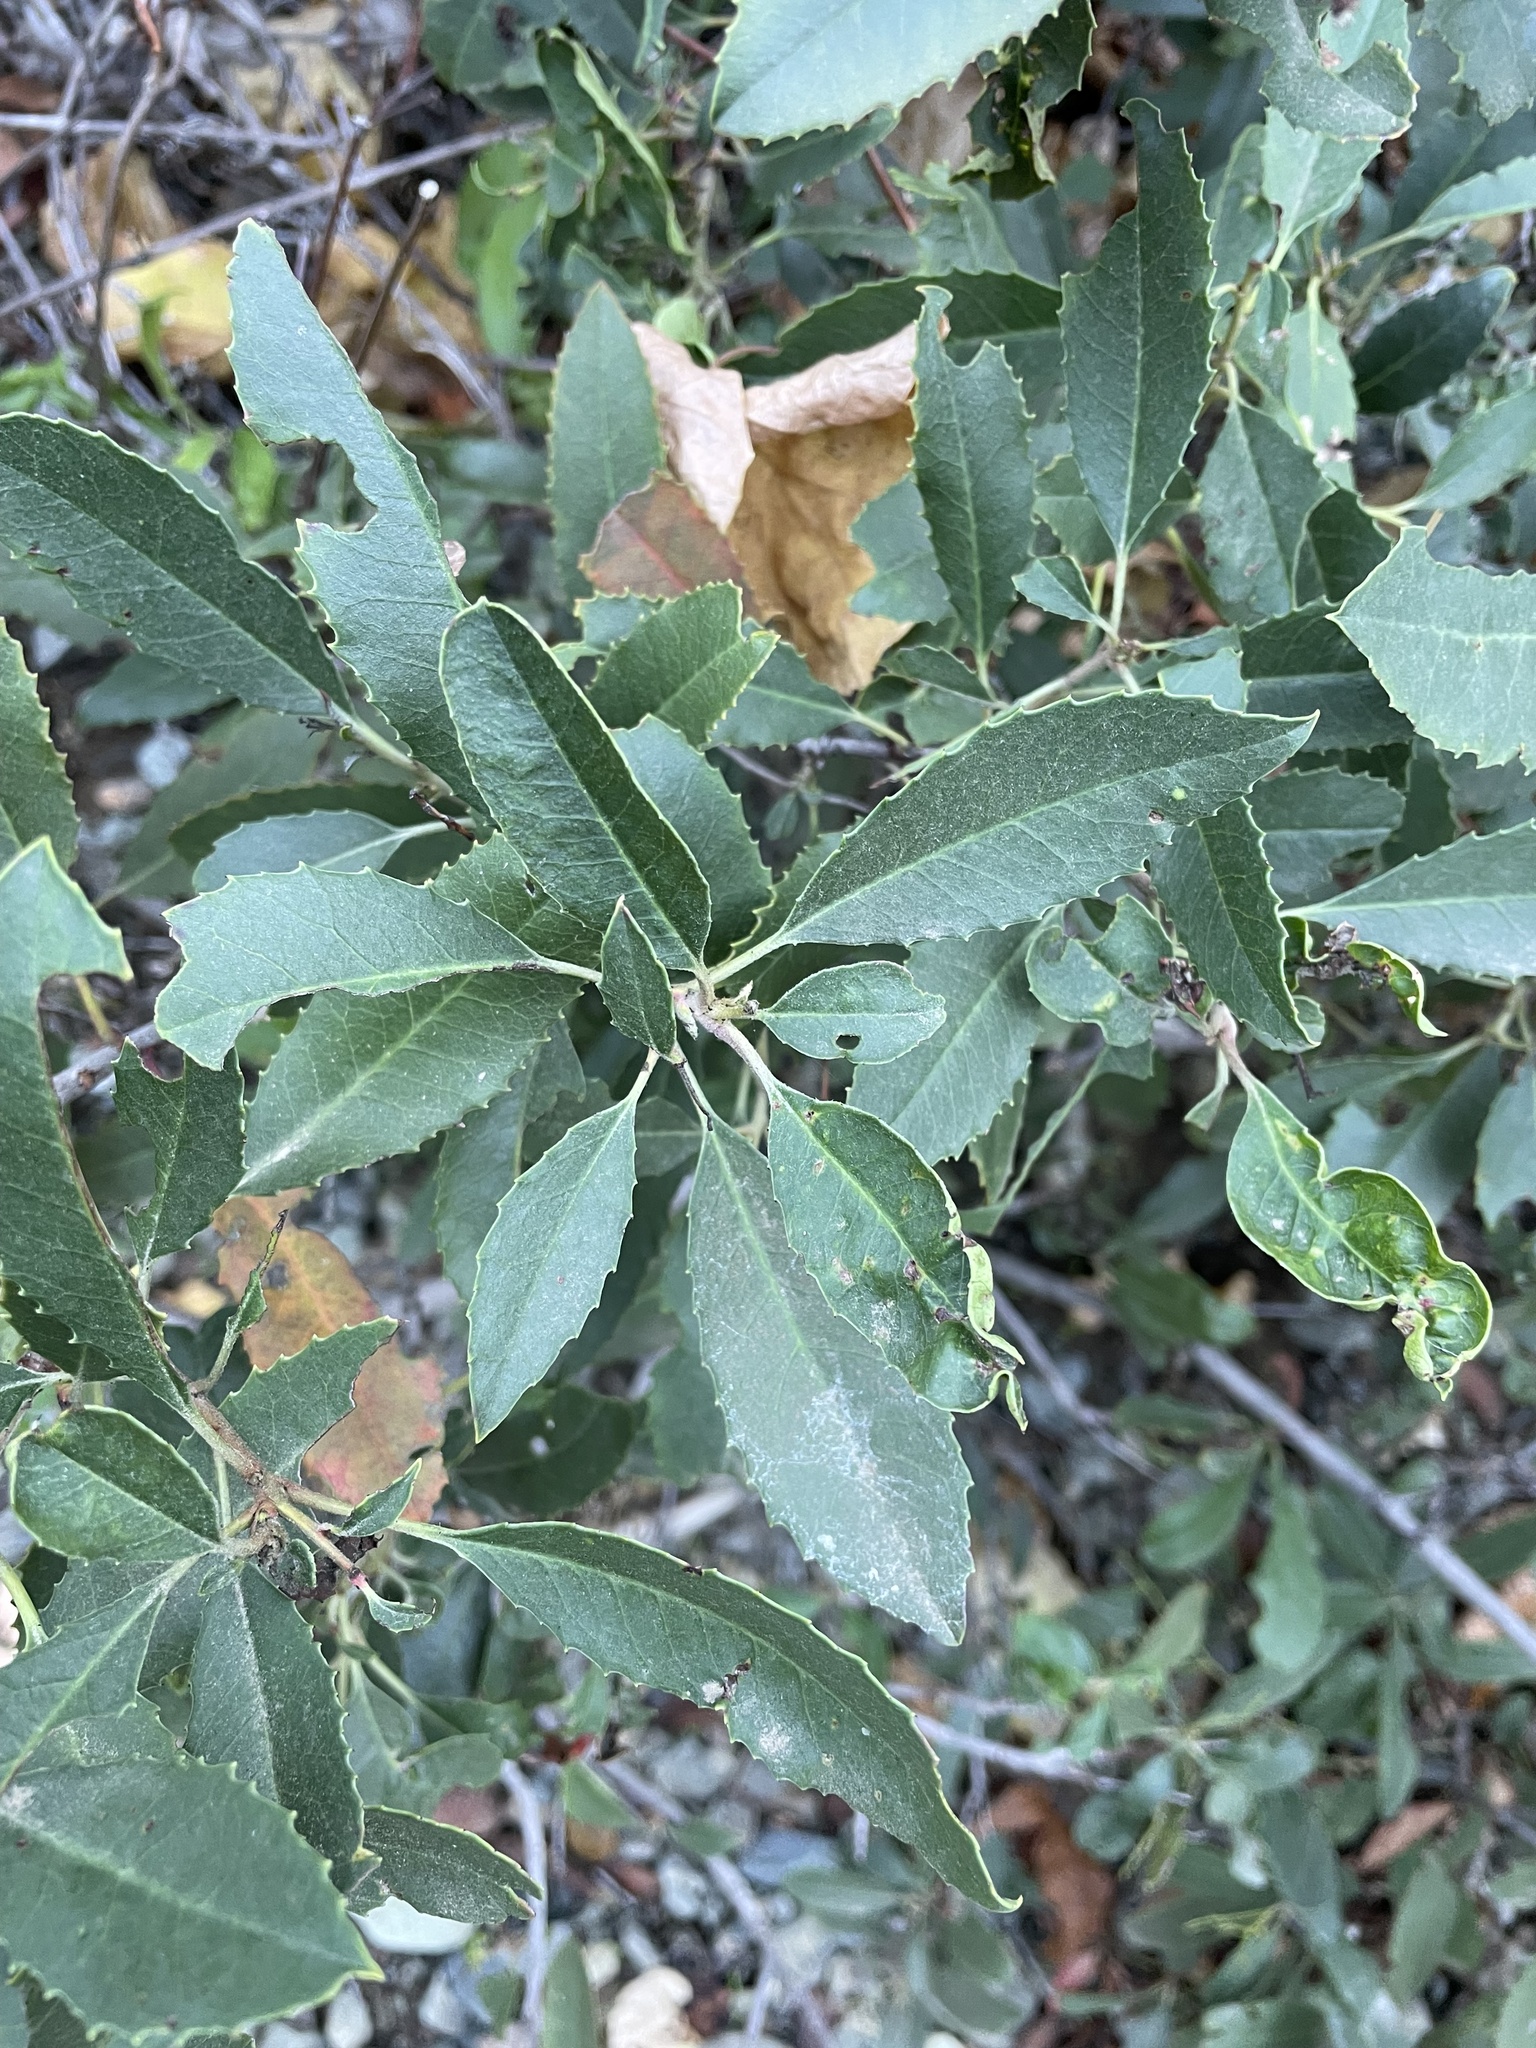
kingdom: Plantae
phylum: Tracheophyta
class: Magnoliopsida
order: Rosales
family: Rosaceae
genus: Heteromeles
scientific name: Heteromeles arbutifolia
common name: California-holly
